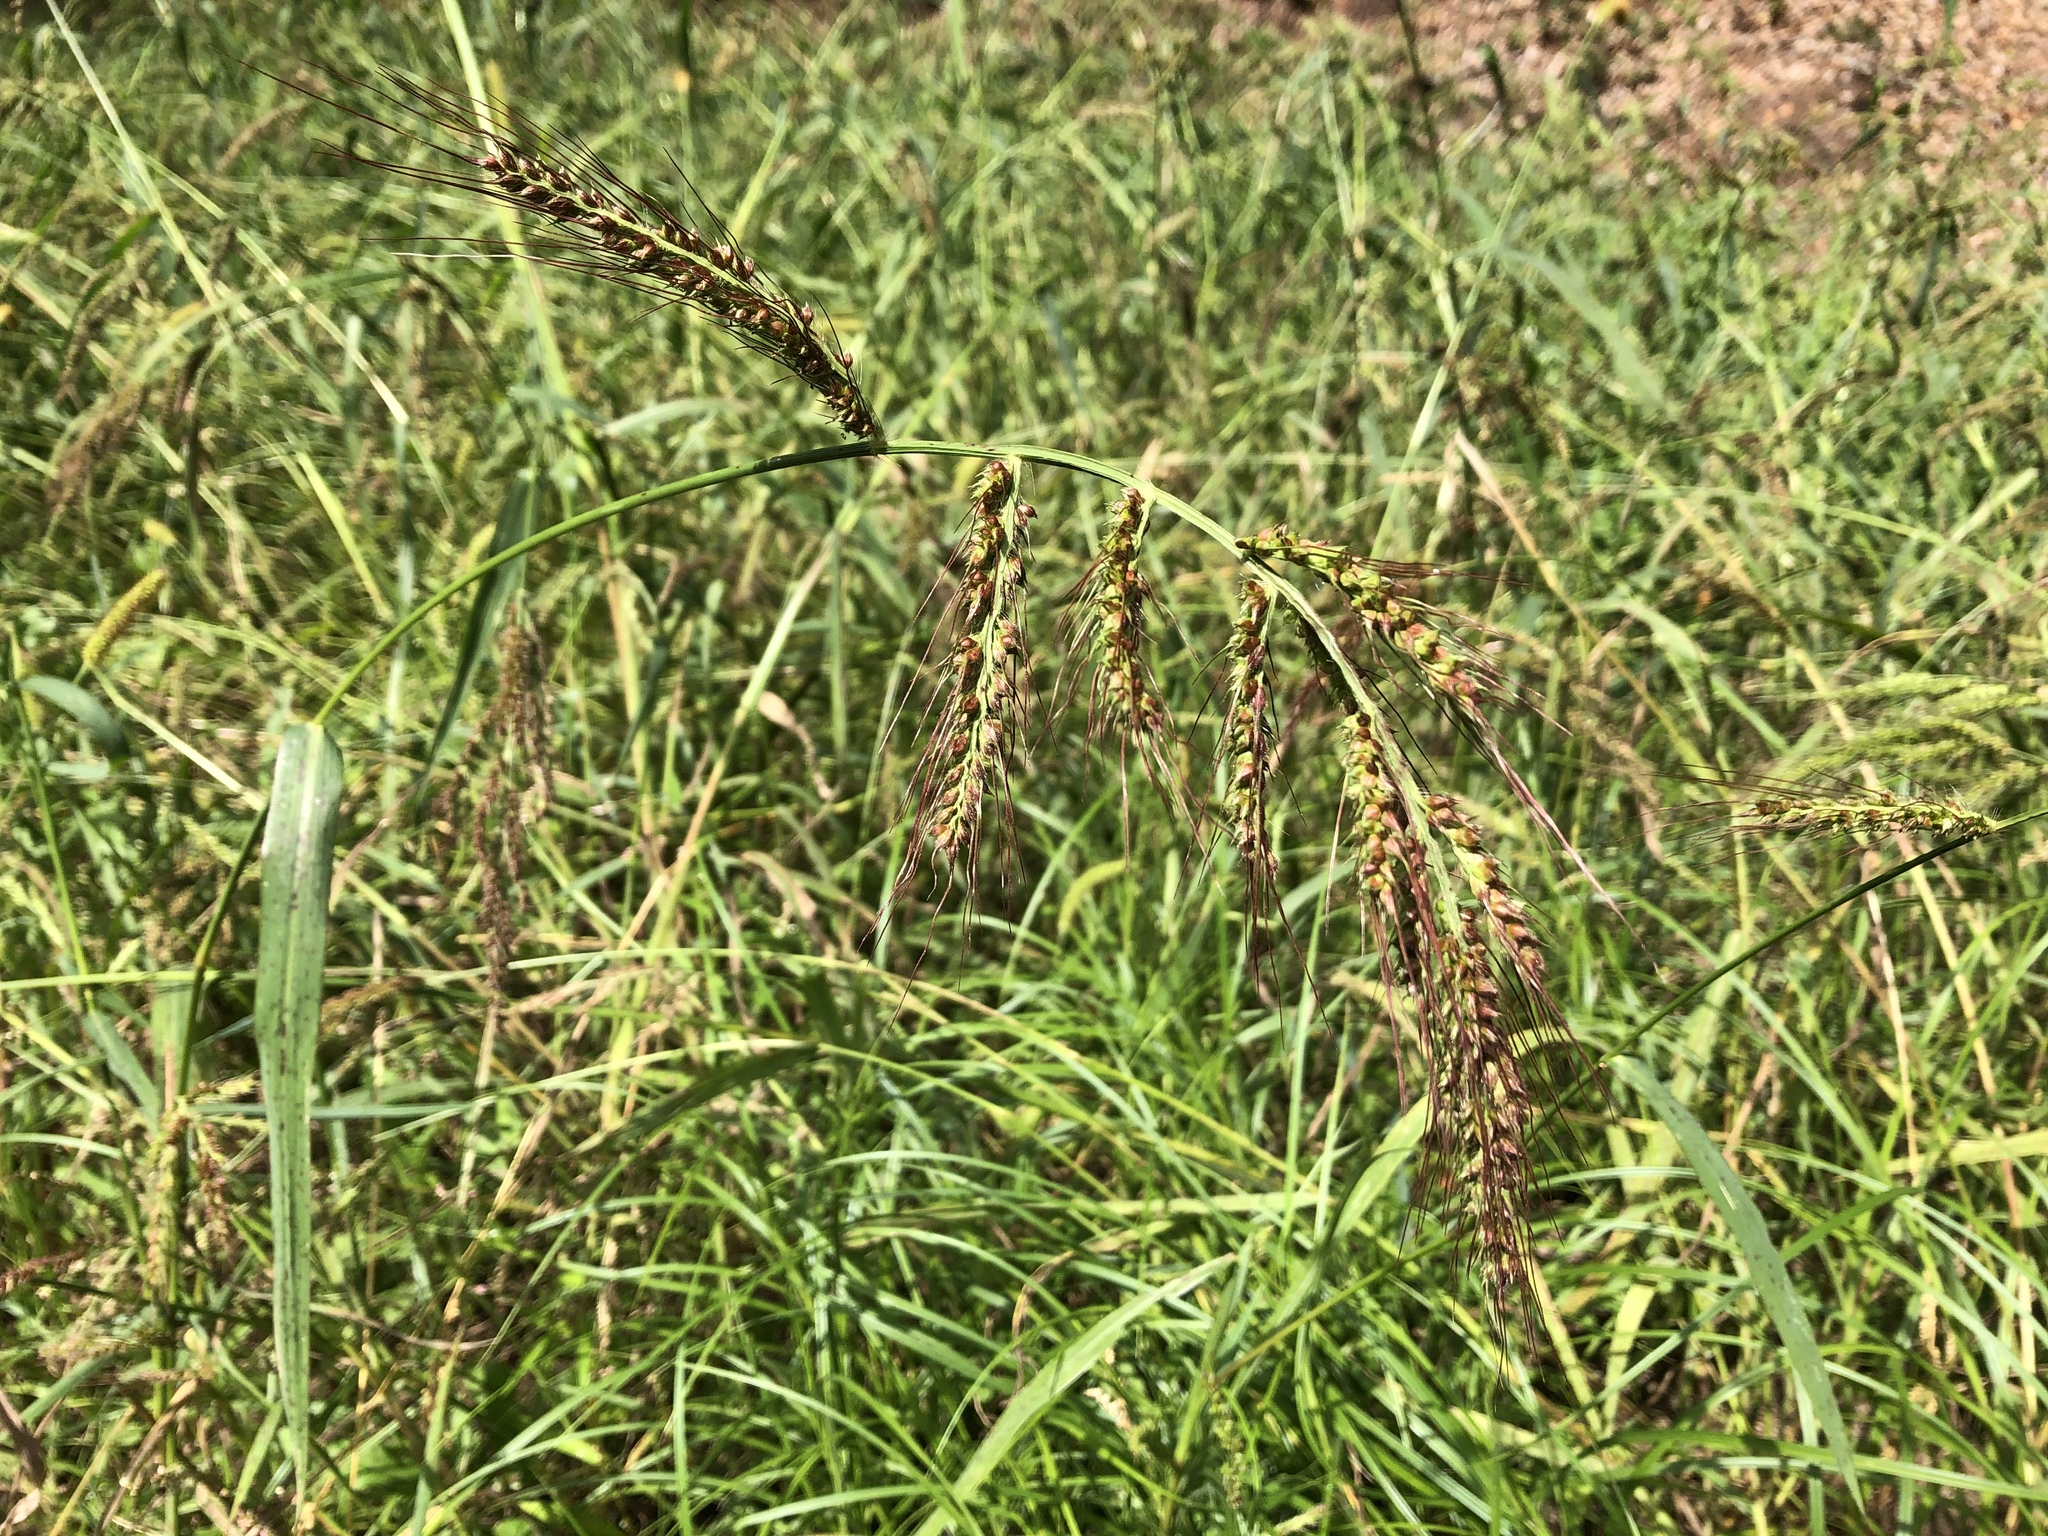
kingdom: Plantae
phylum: Tracheophyta
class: Liliopsida
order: Poales
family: Poaceae
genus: Echinochloa
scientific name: Echinochloa crus-galli
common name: Cockspur
